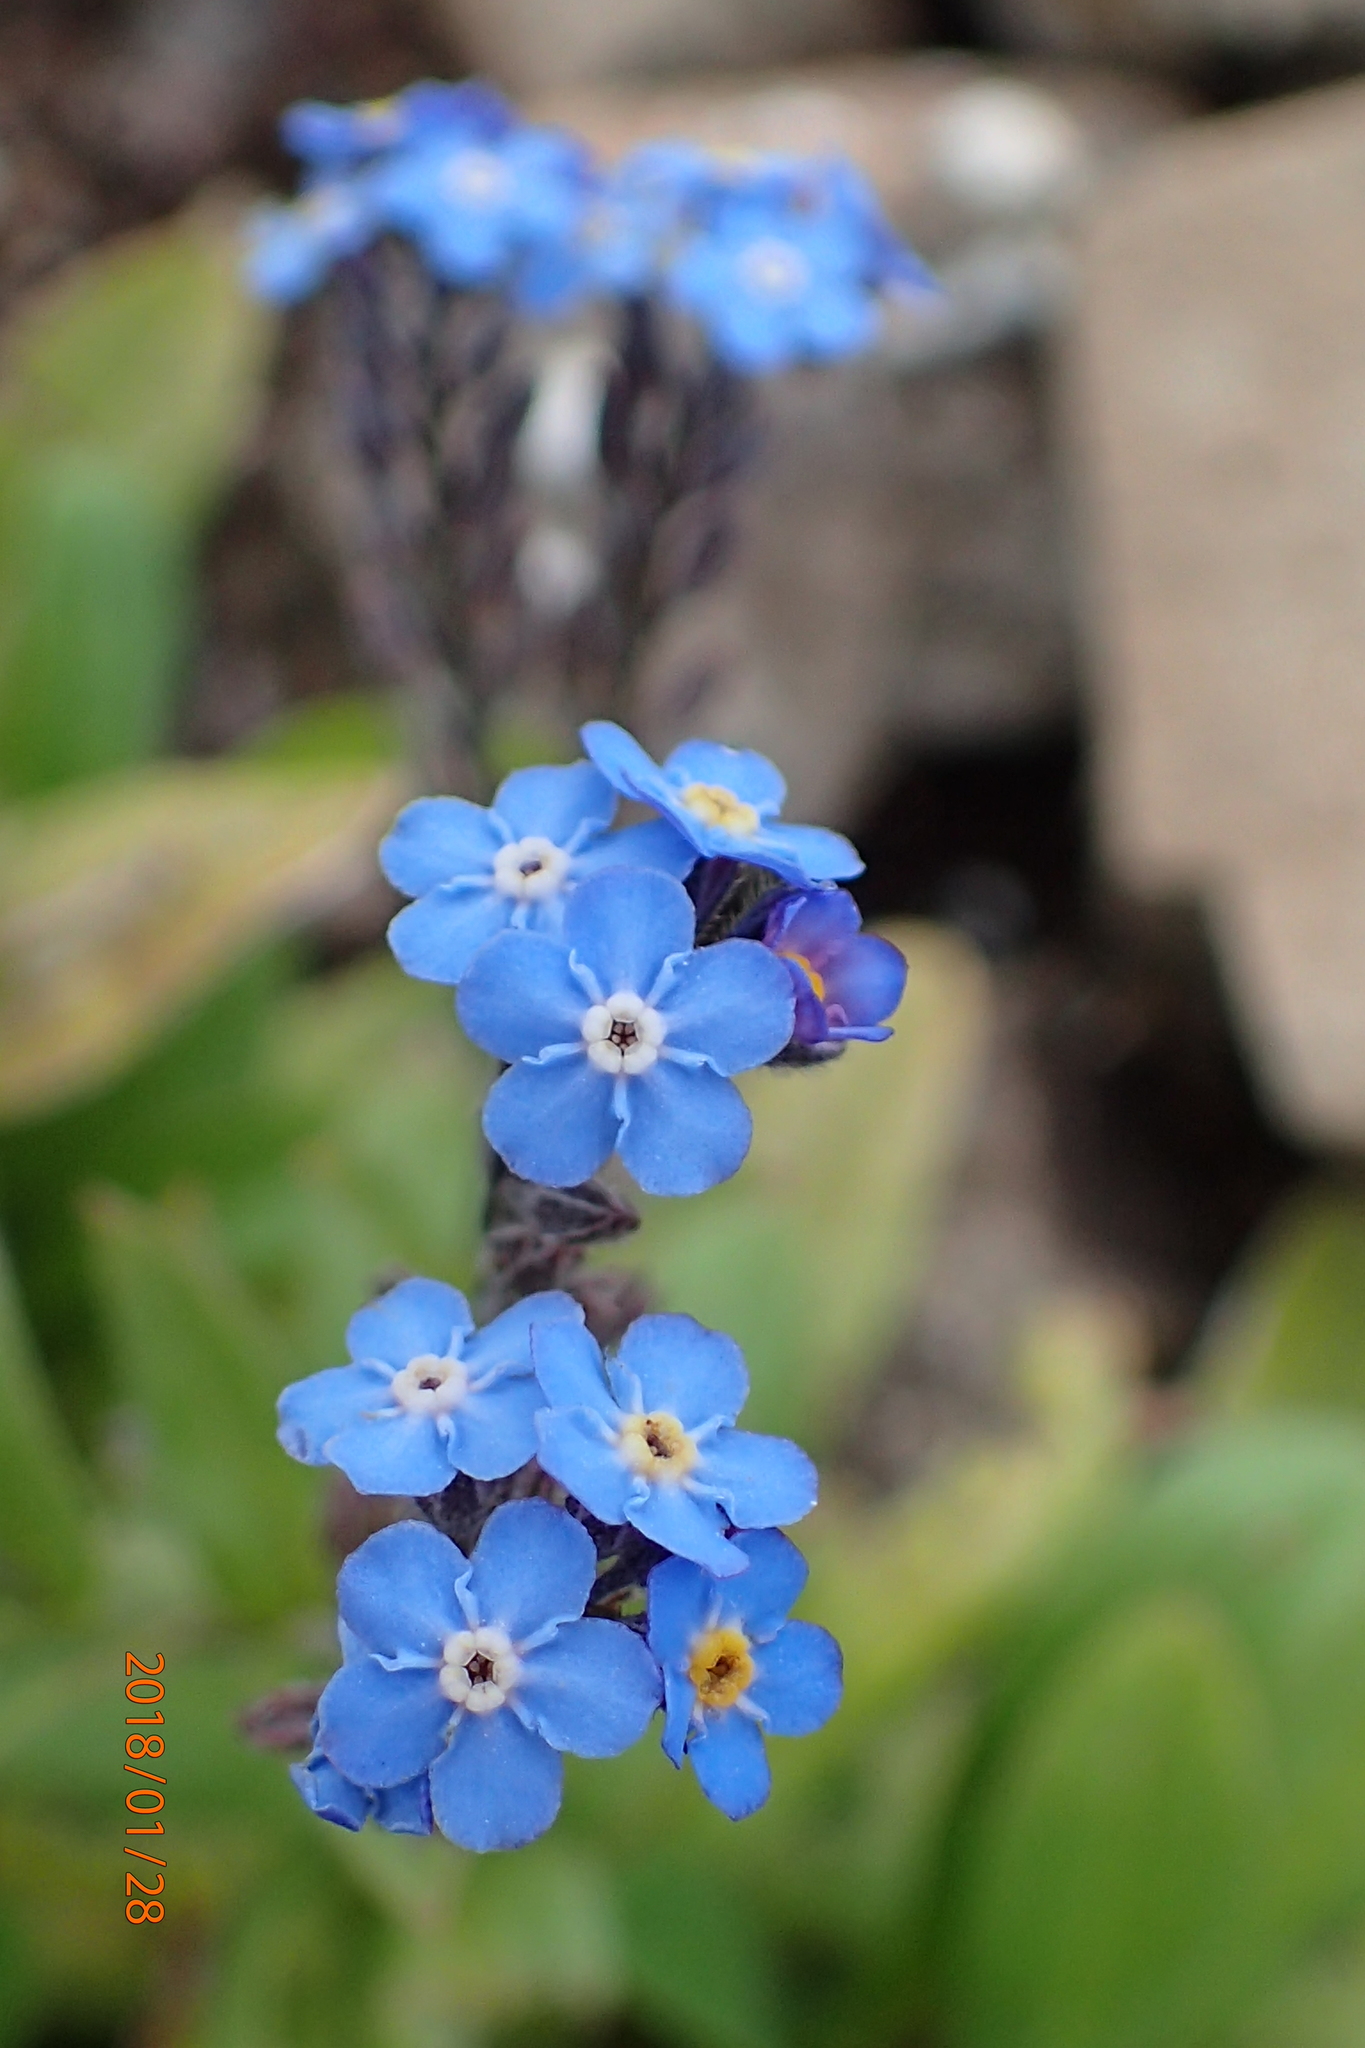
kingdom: Plantae
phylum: Tracheophyta
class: Magnoliopsida
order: Boraginales
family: Boraginaceae
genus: Myosotis
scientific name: Myosotis semiamplexicaulis
